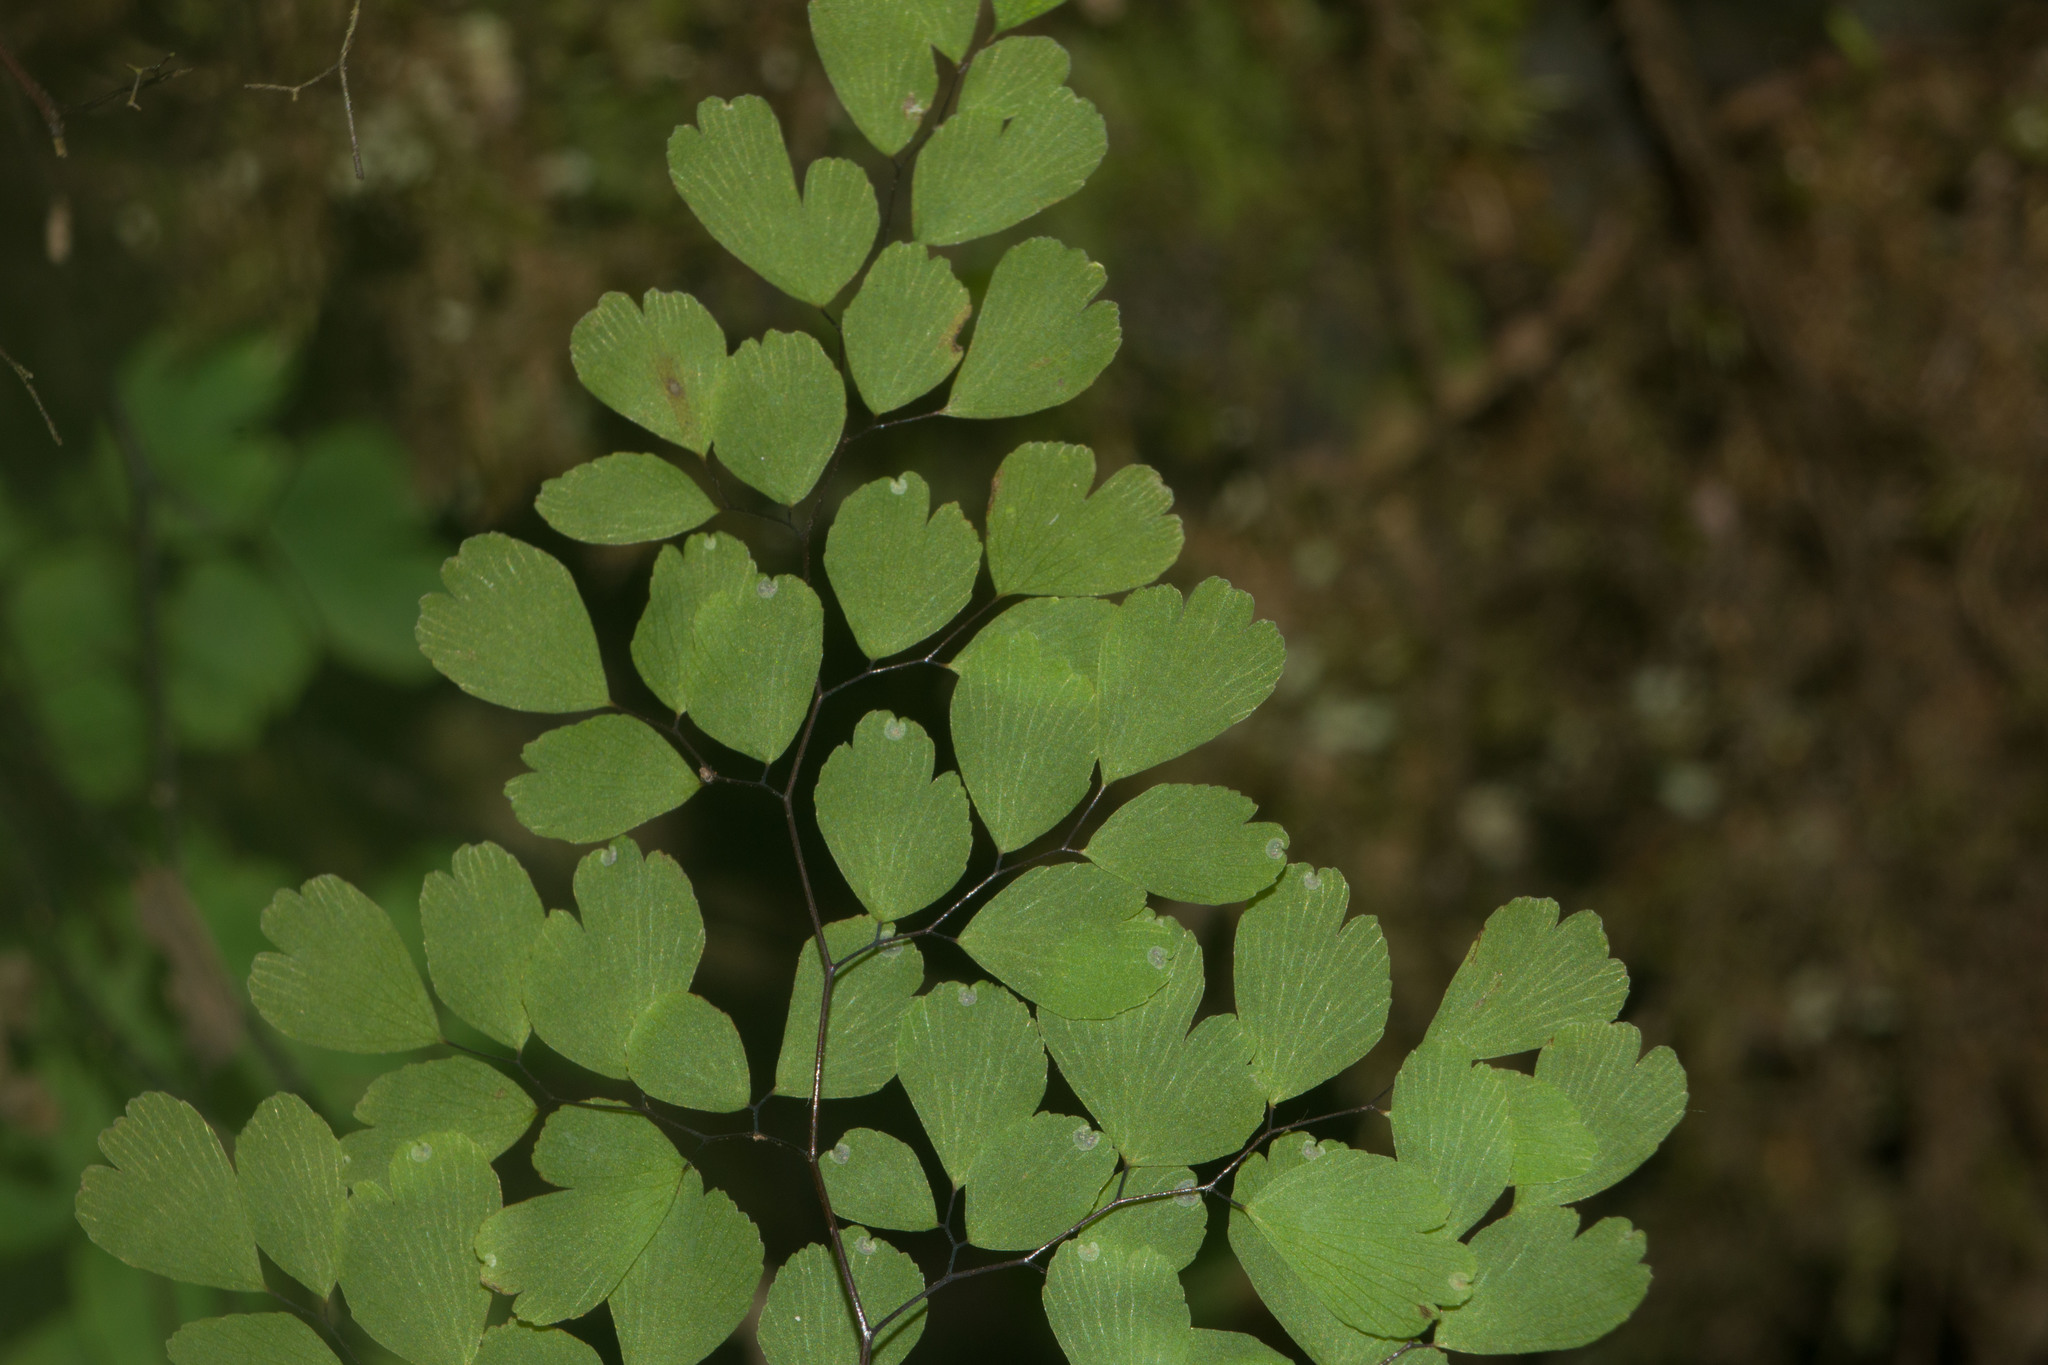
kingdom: Plantae
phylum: Tracheophyta
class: Polypodiopsida
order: Polypodiales
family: Pteridaceae
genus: Adiantum
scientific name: Adiantum raddianum
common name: Delta maidenhair fern
